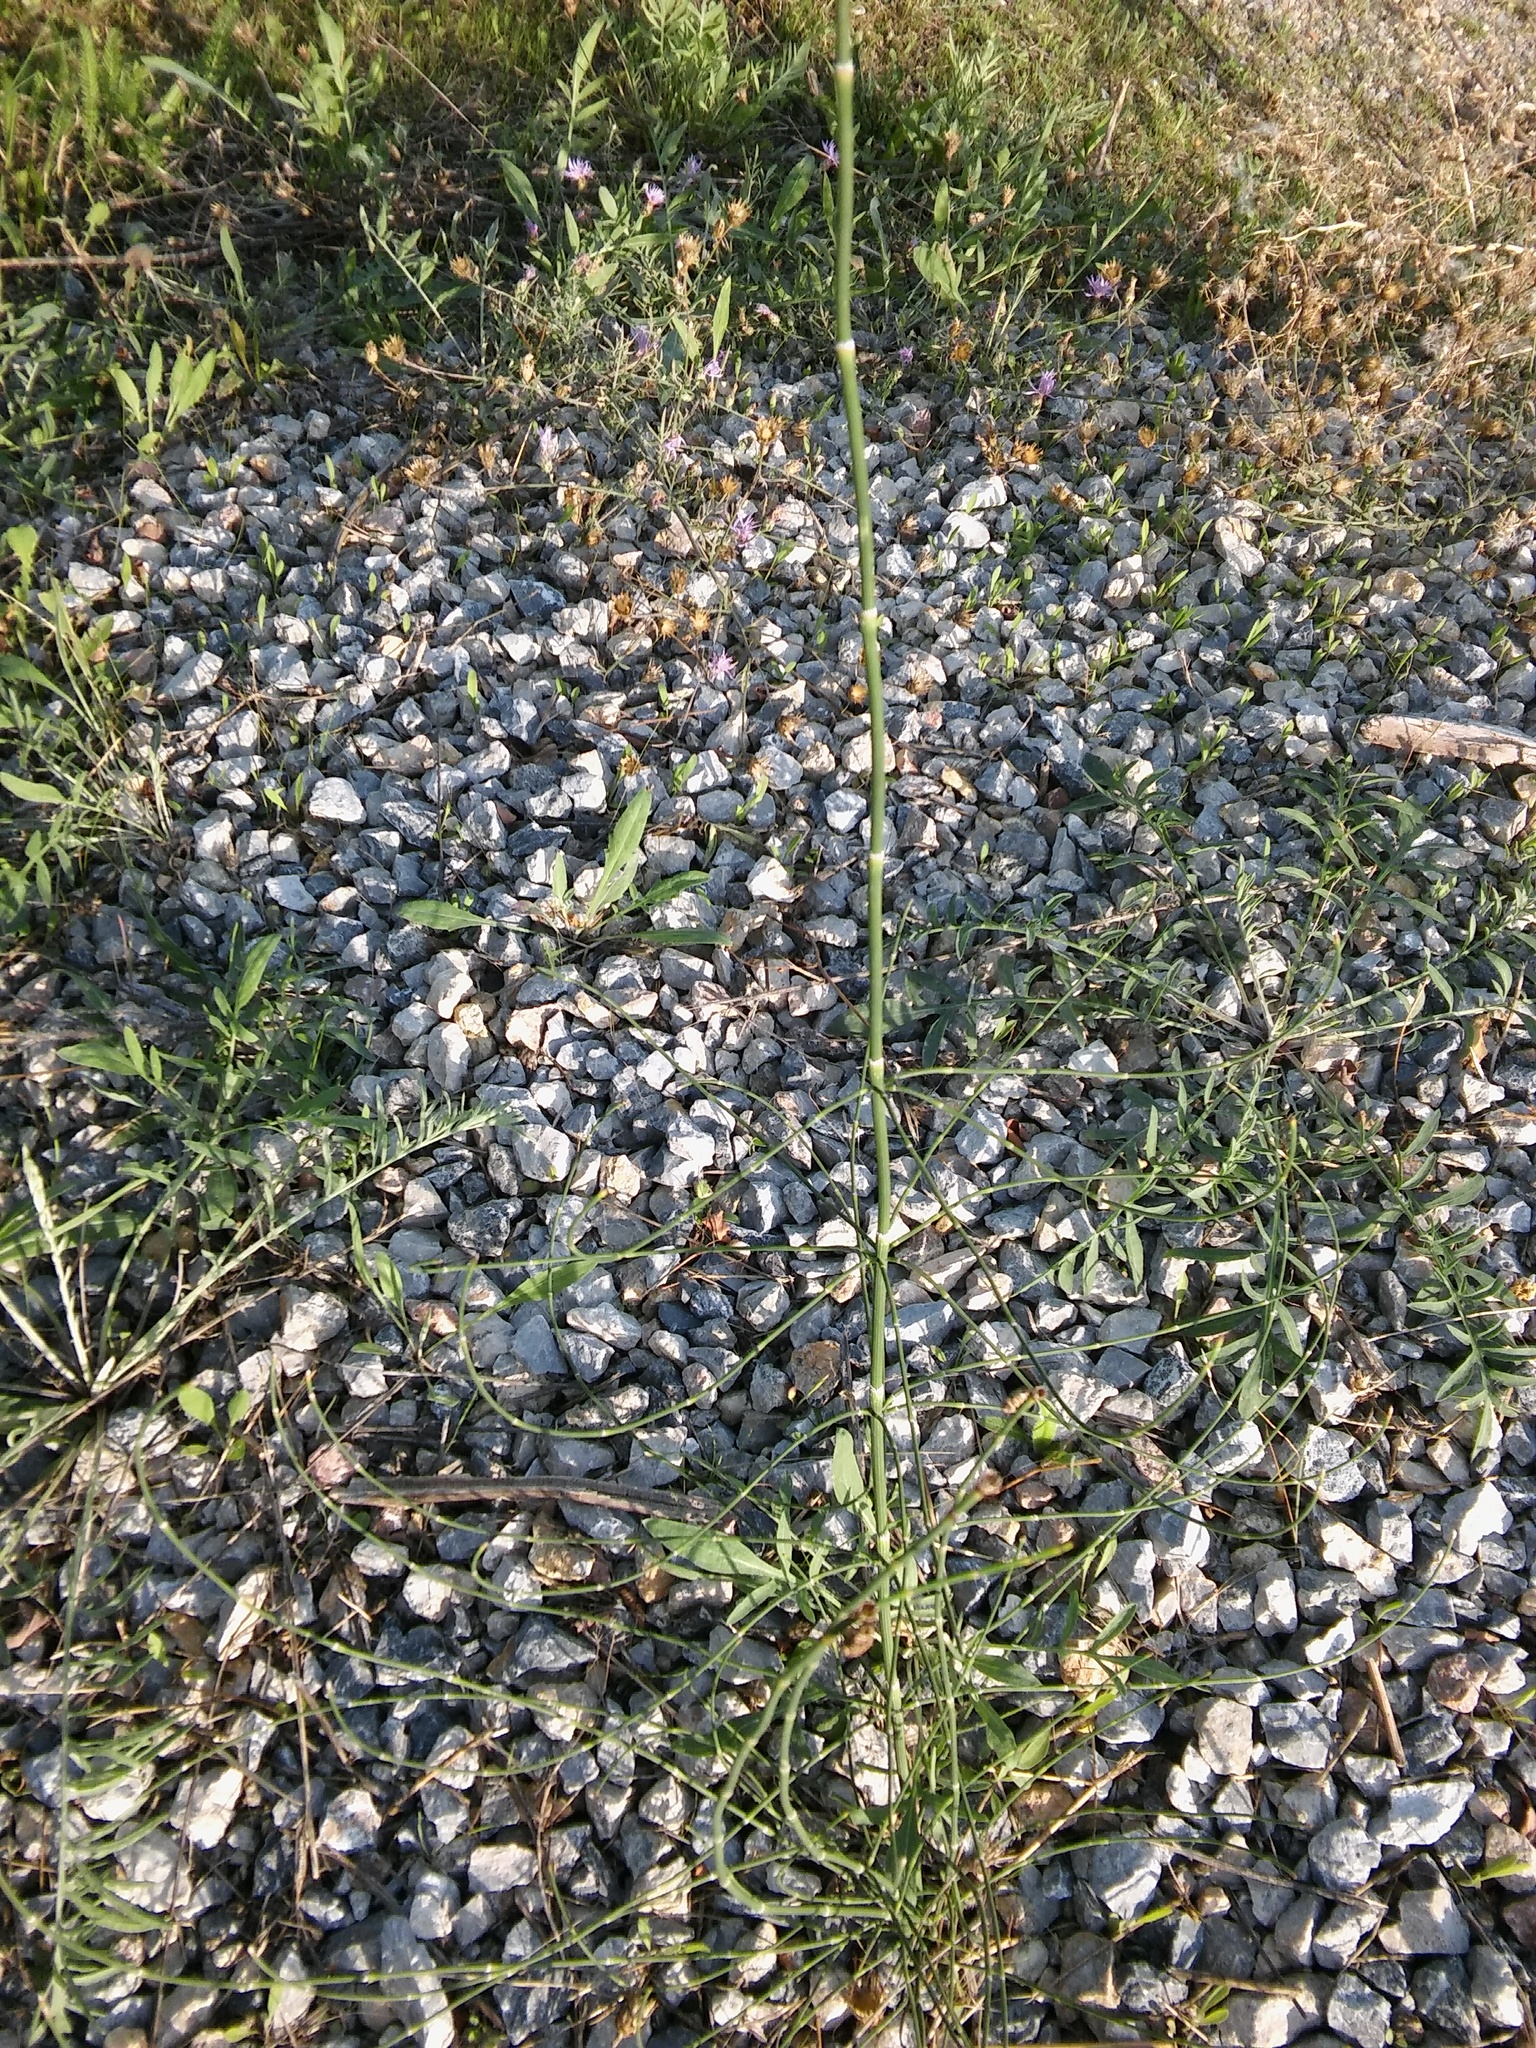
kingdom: Plantae
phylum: Tracheophyta
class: Polypodiopsida
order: Equisetales
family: Equisetaceae
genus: Equisetum
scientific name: Equisetum ramosissimum
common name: Branched horsetail
